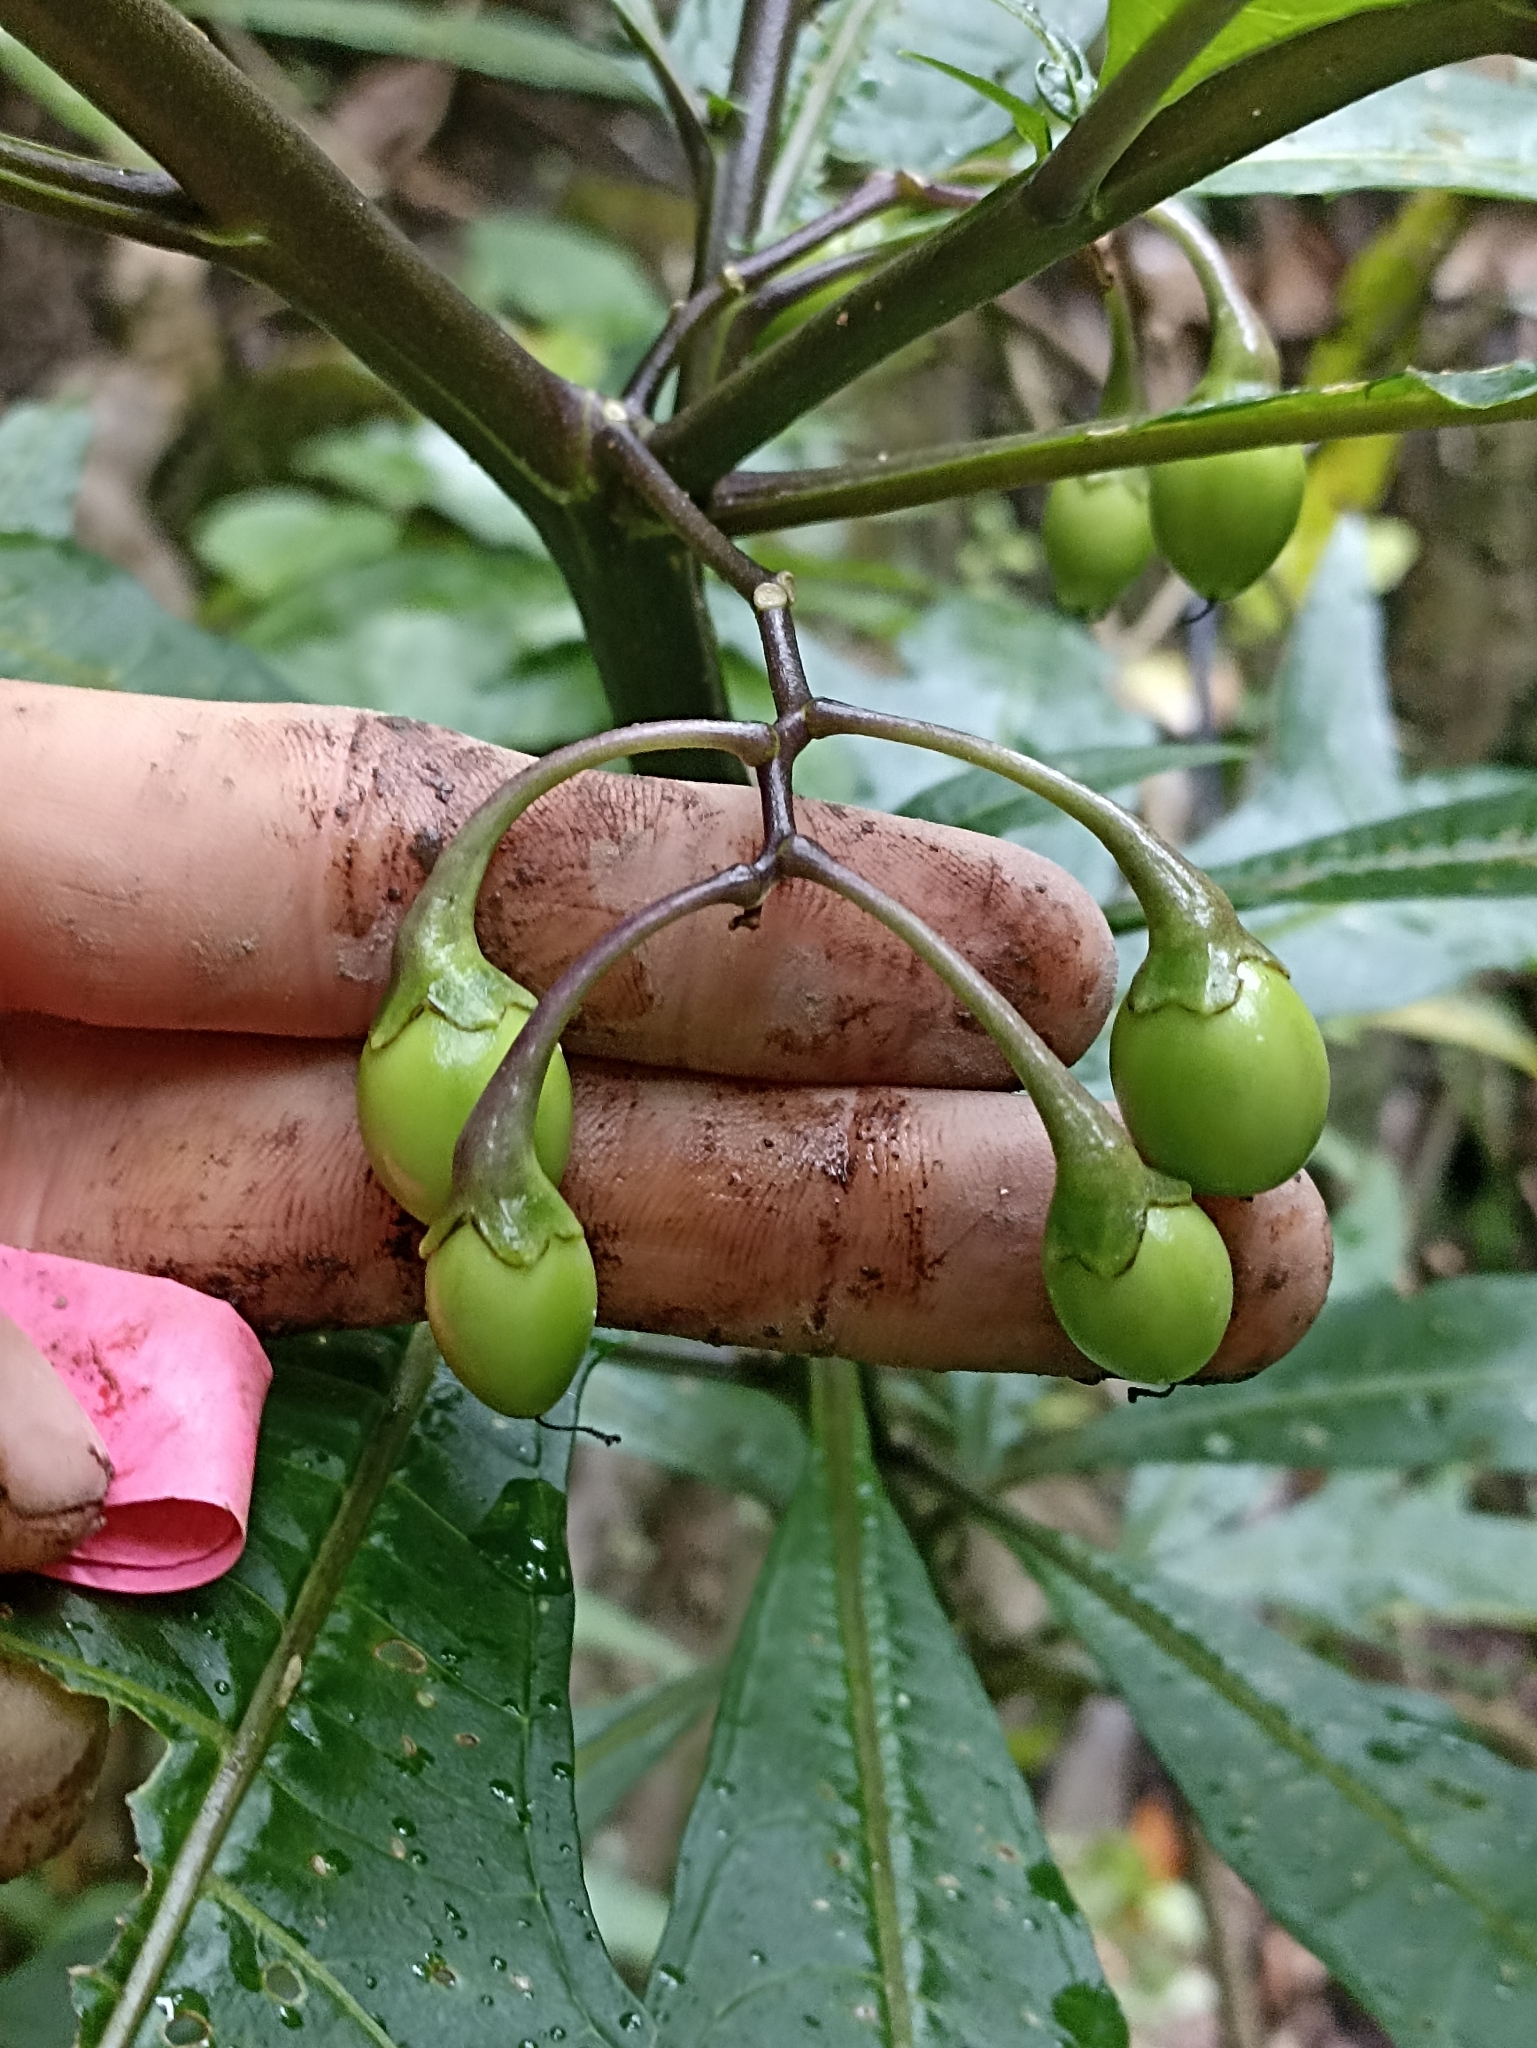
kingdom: Plantae
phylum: Tracheophyta
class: Magnoliopsida
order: Solanales
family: Solanaceae
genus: Solanum
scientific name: Solanum laciniatum
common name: Kangaroo-apple
